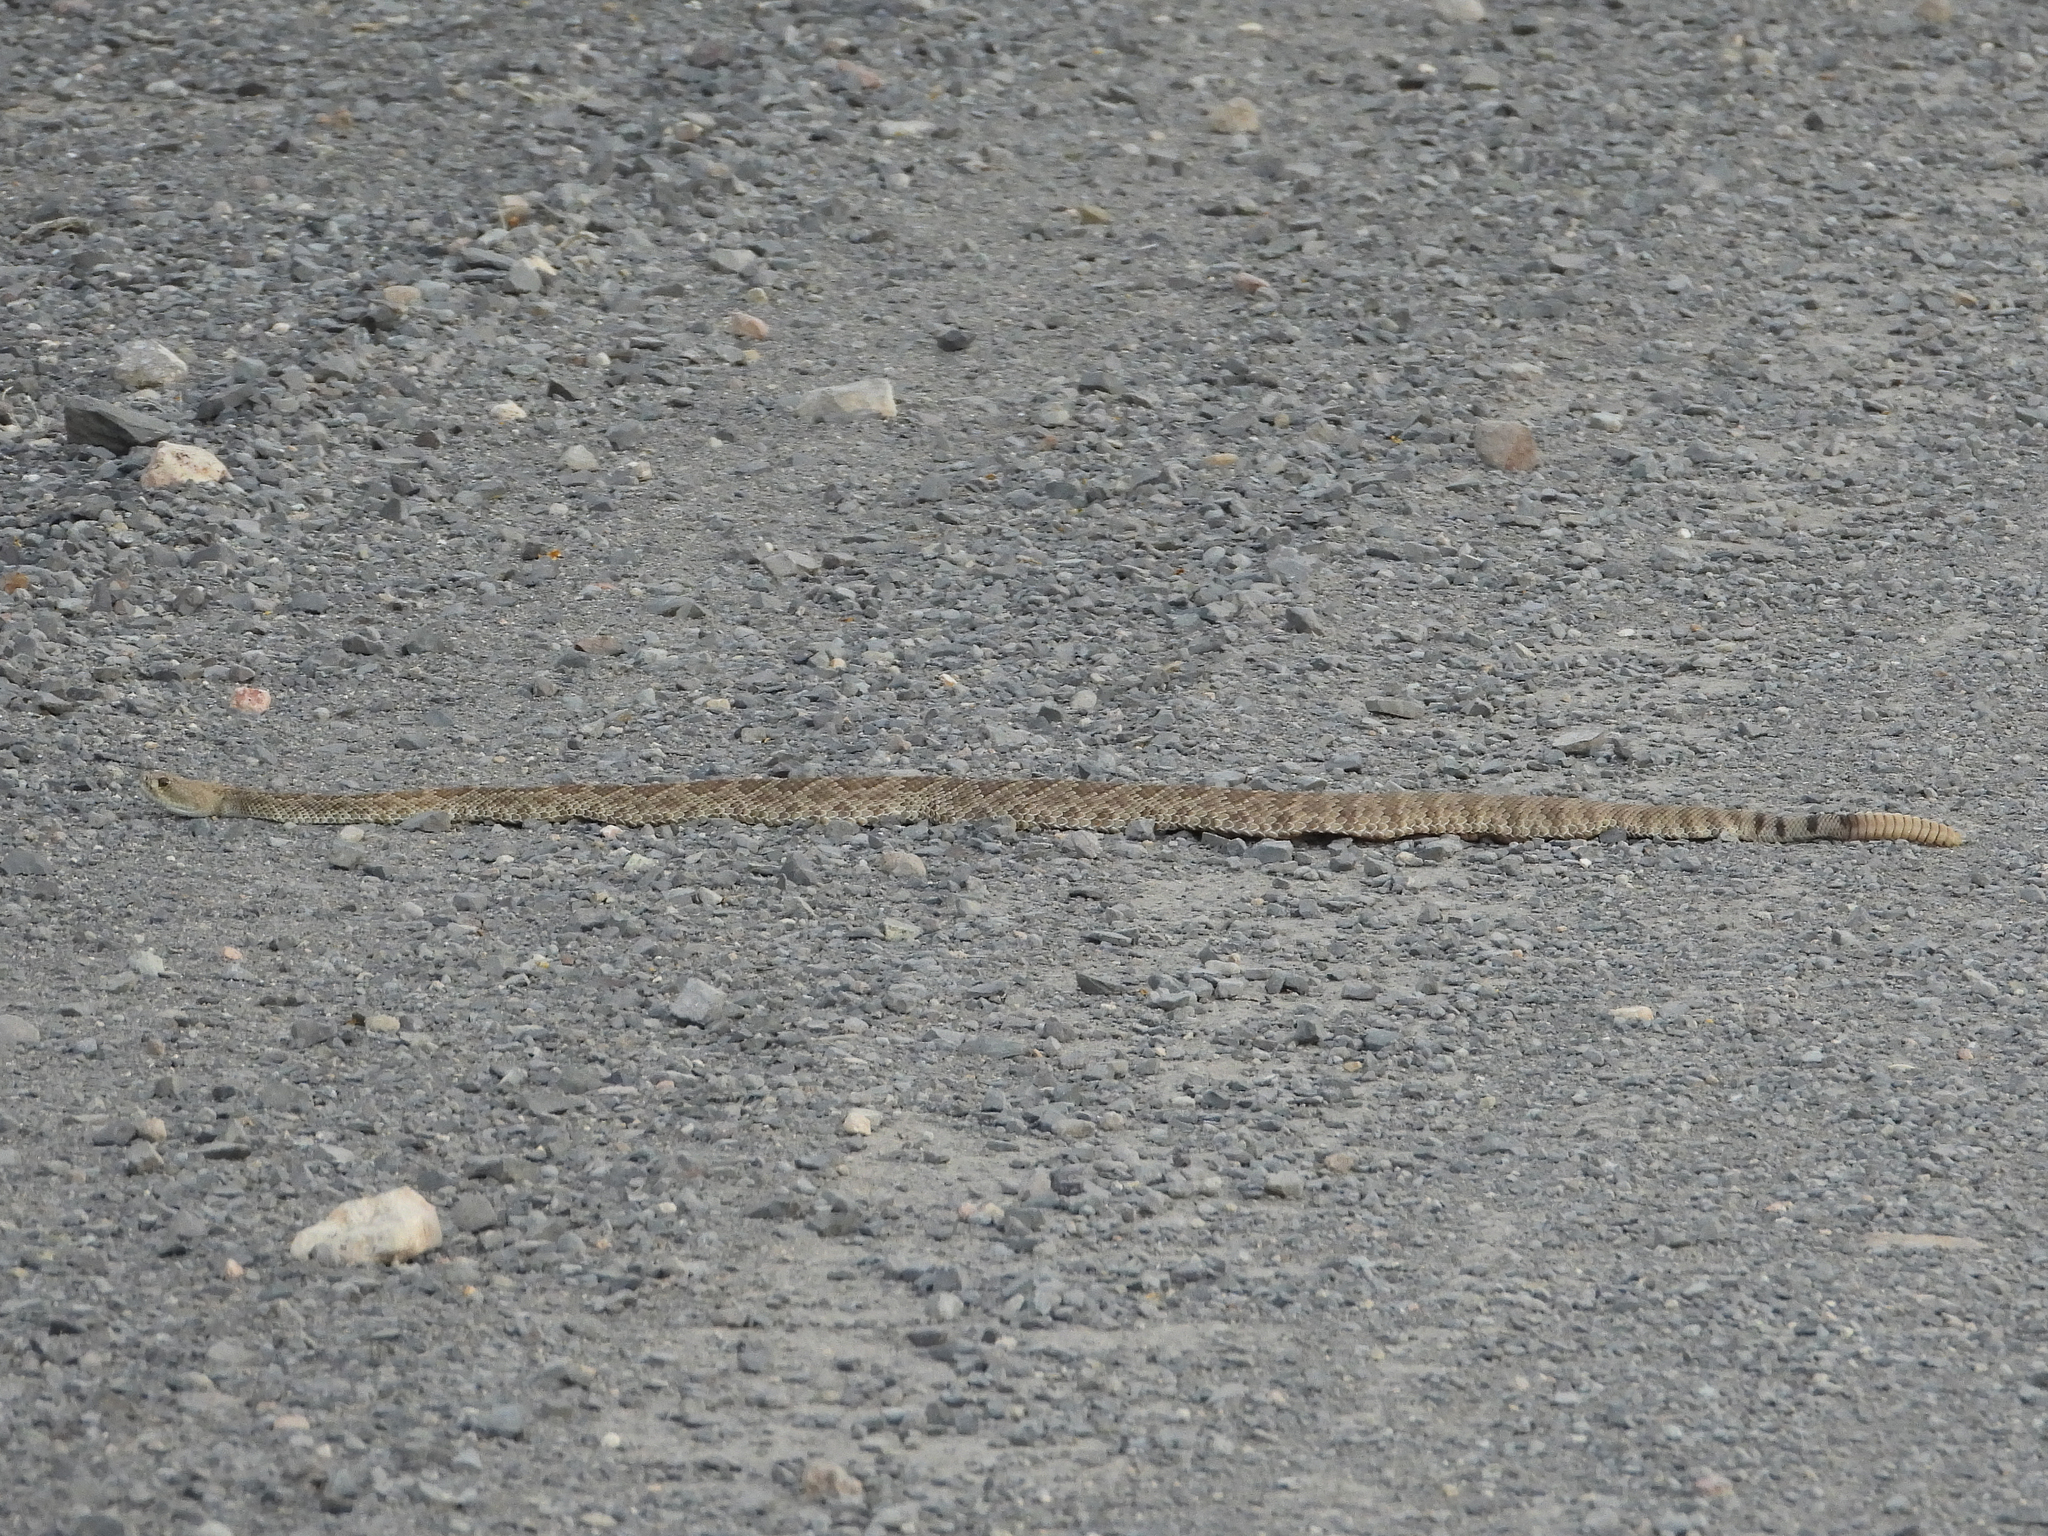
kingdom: Animalia
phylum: Chordata
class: Squamata
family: Viperidae
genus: Crotalus
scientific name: Crotalus scutulatus
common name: Scutulatus
